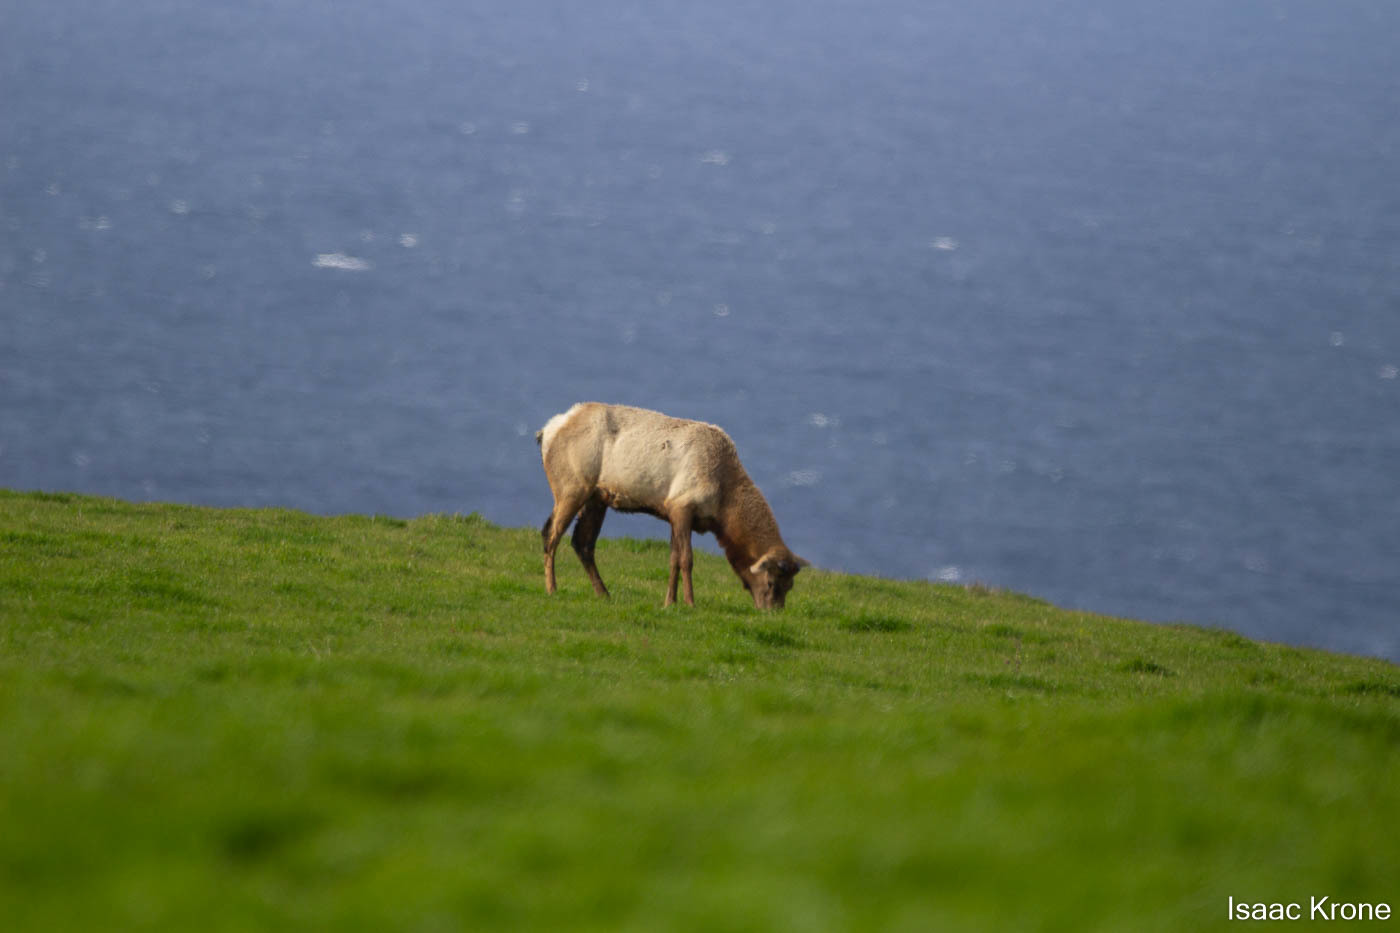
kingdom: Animalia
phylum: Chordata
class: Mammalia
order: Artiodactyla
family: Cervidae
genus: Cervus
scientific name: Cervus elaphus
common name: Red deer
